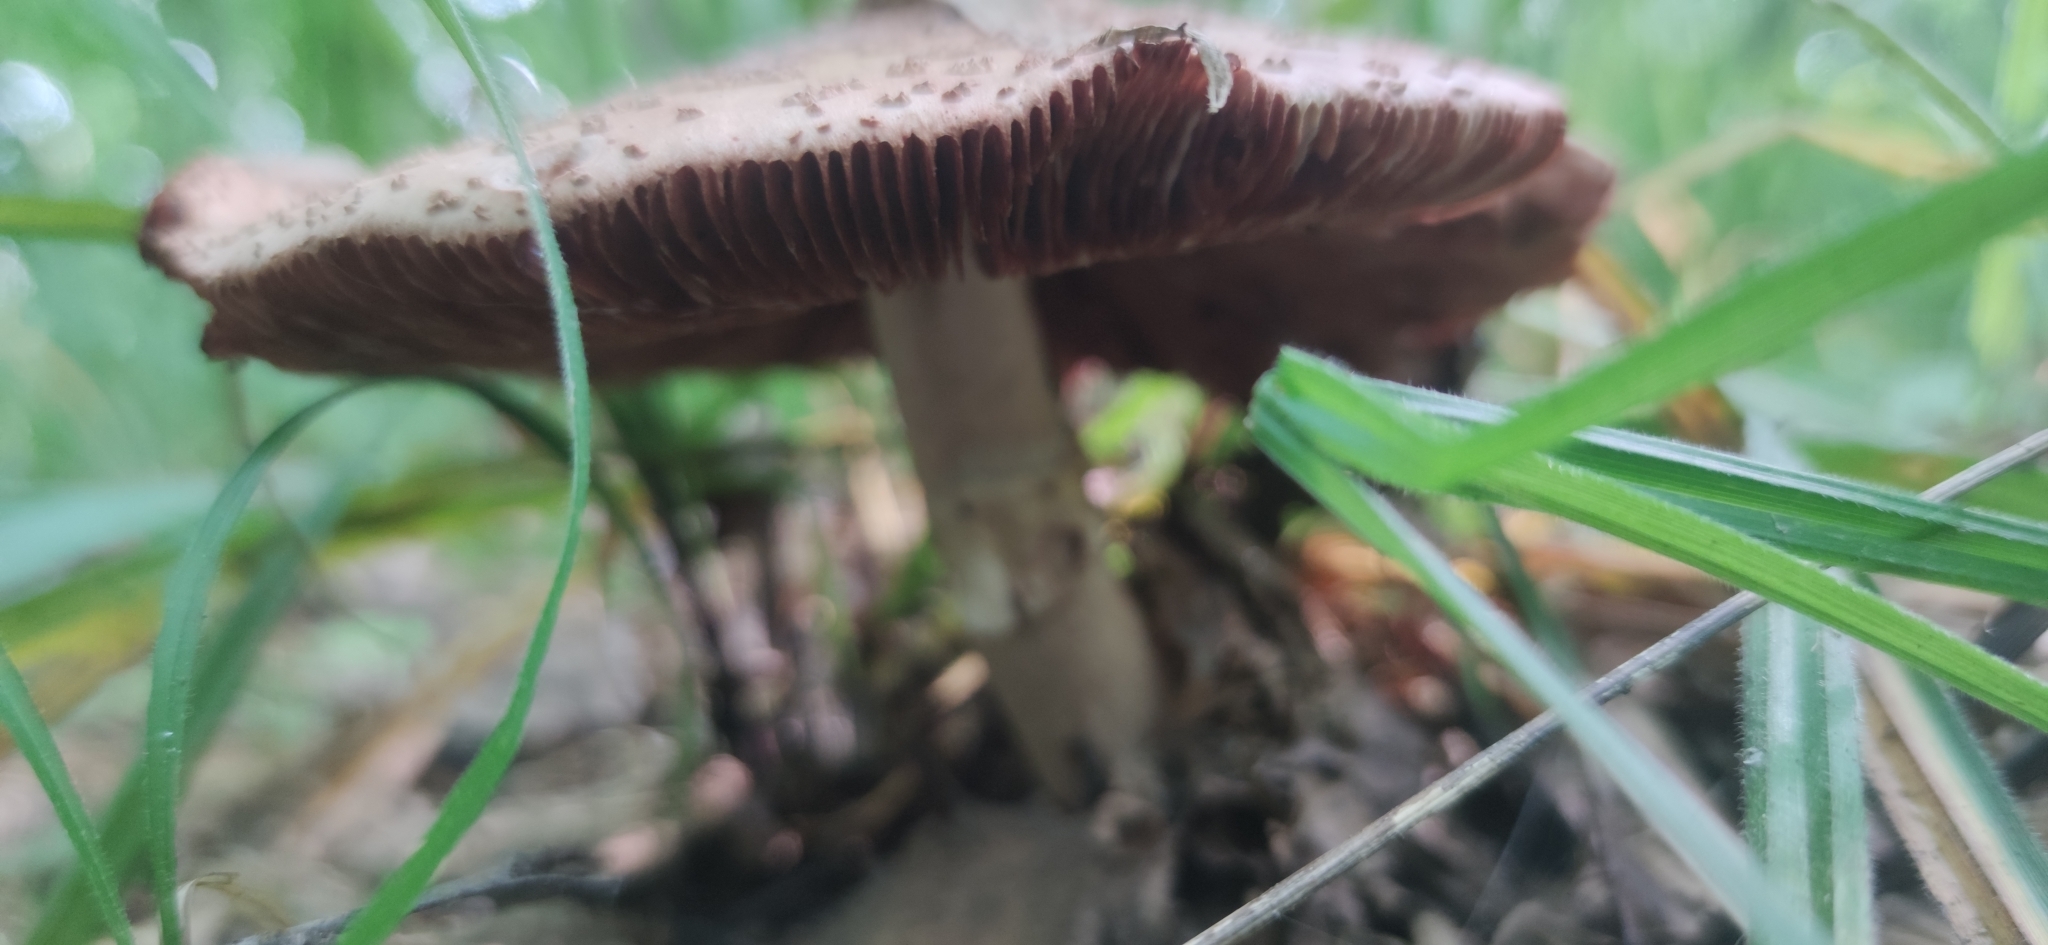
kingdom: Fungi
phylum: Basidiomycota
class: Agaricomycetes
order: Agaricales
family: Amanitaceae
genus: Amanita
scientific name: Amanita rubescens
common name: Blusher
